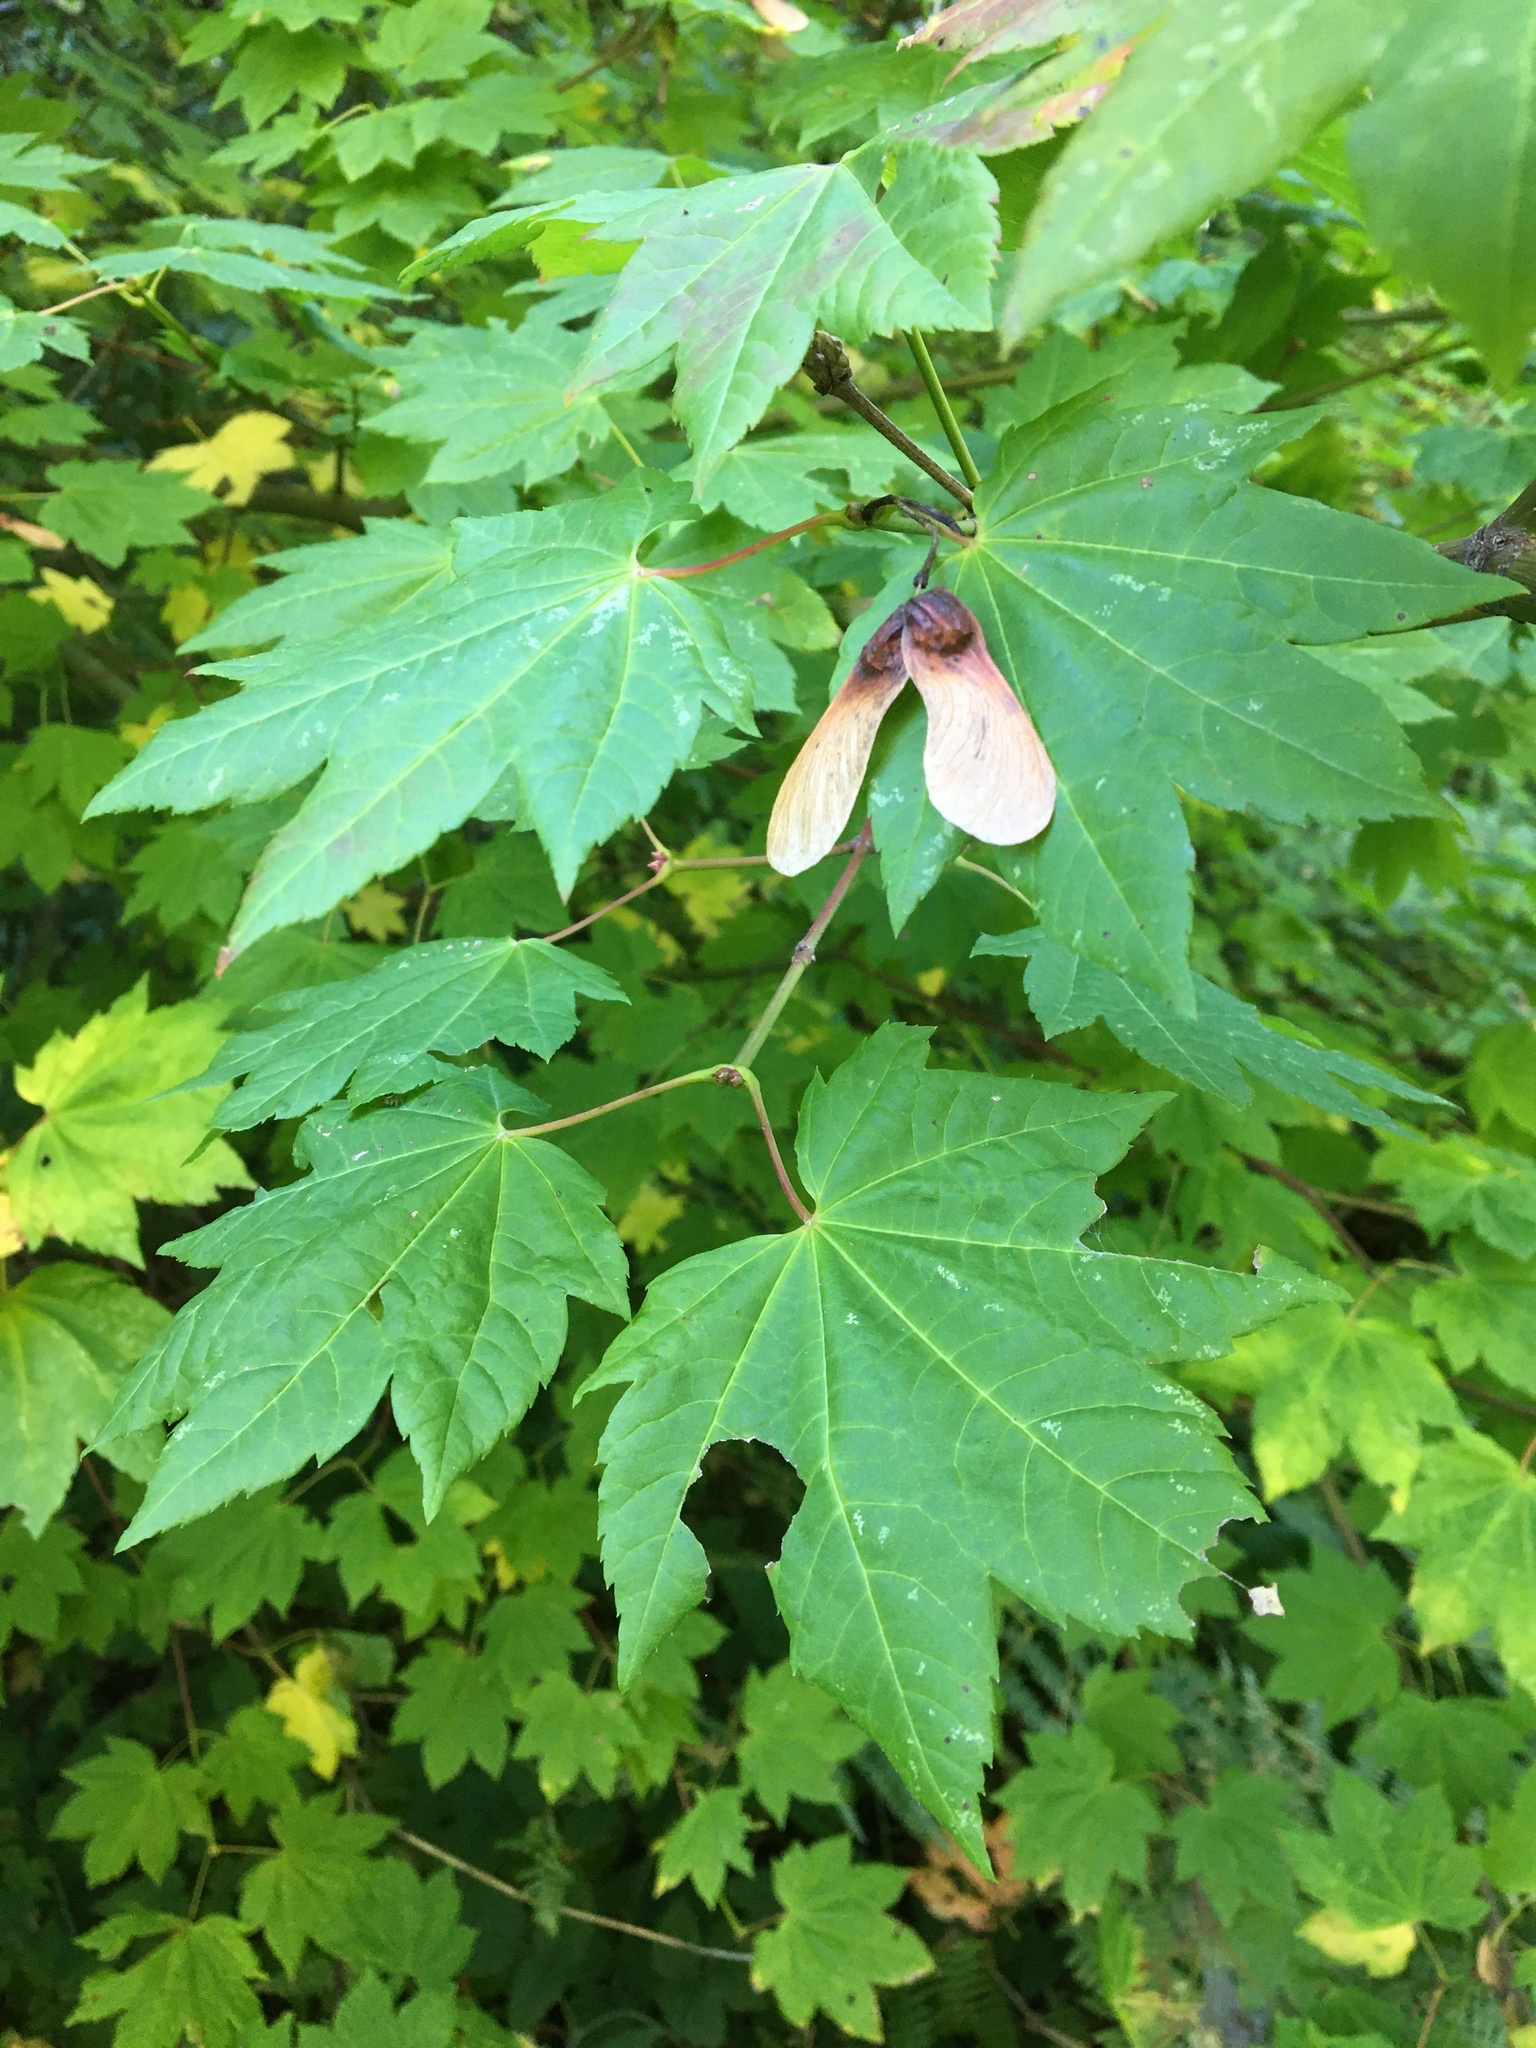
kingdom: Plantae
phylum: Tracheophyta
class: Magnoliopsida
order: Sapindales
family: Sapindaceae
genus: Acer
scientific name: Acer circinatum
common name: Vine maple
